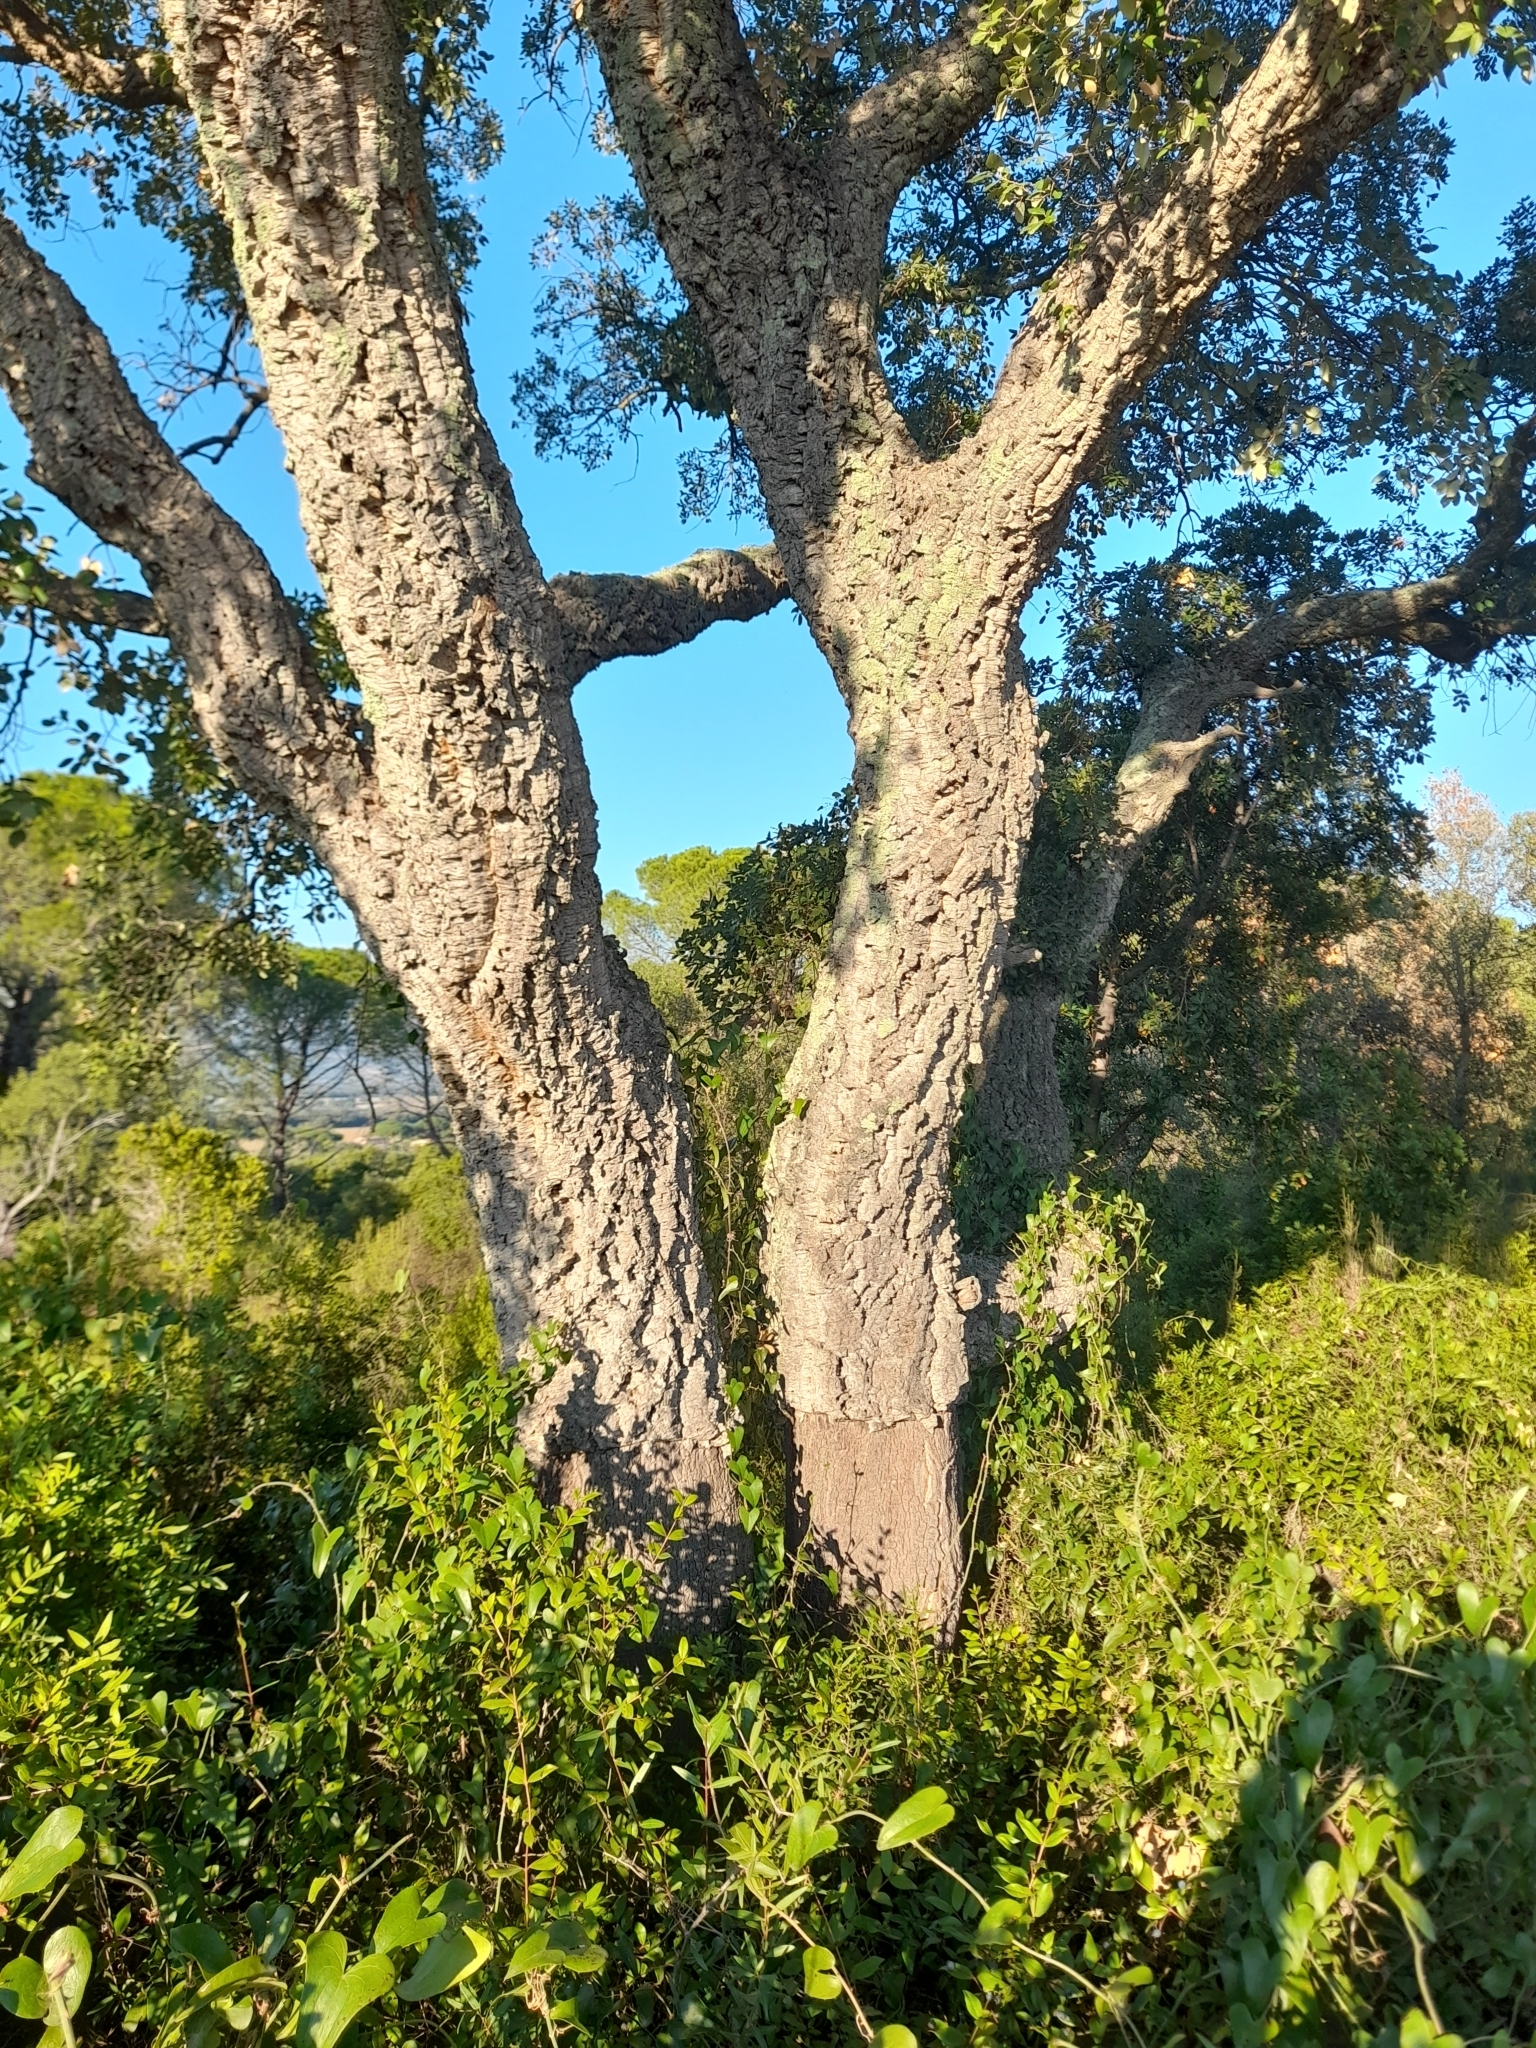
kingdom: Plantae
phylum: Tracheophyta
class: Magnoliopsida
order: Fagales
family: Fagaceae
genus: Quercus
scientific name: Quercus suber
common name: Cork oak
